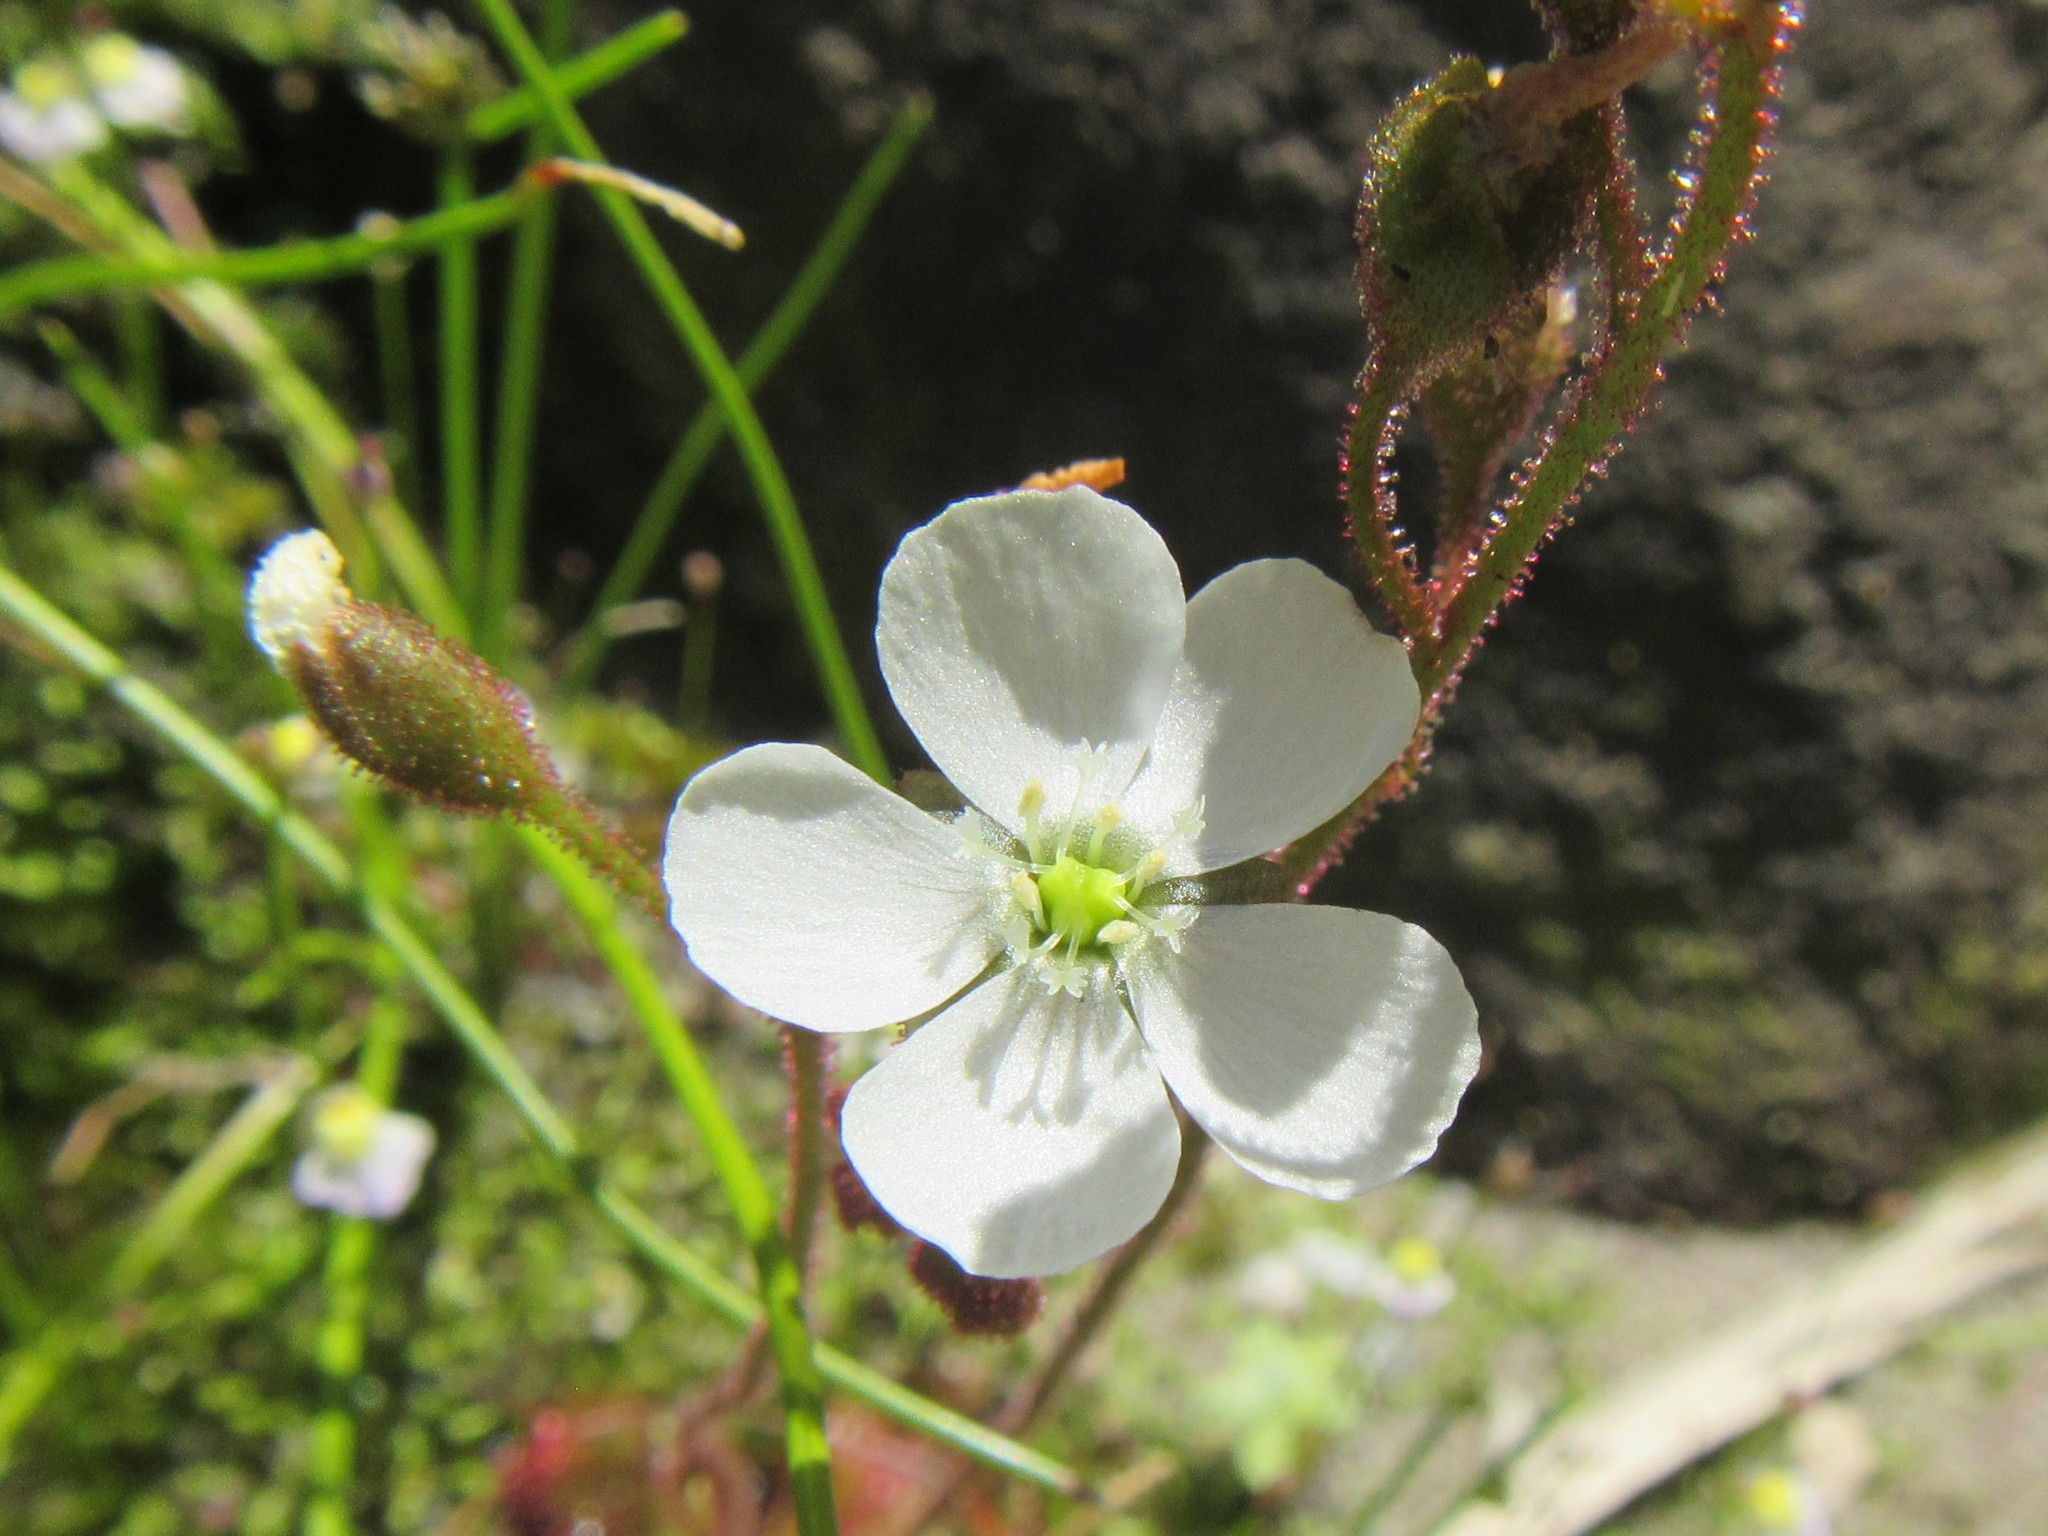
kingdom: Plantae
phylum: Tracheophyta
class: Magnoliopsida
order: Caryophyllales
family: Droseraceae
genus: Drosera
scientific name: Drosera trinervia
